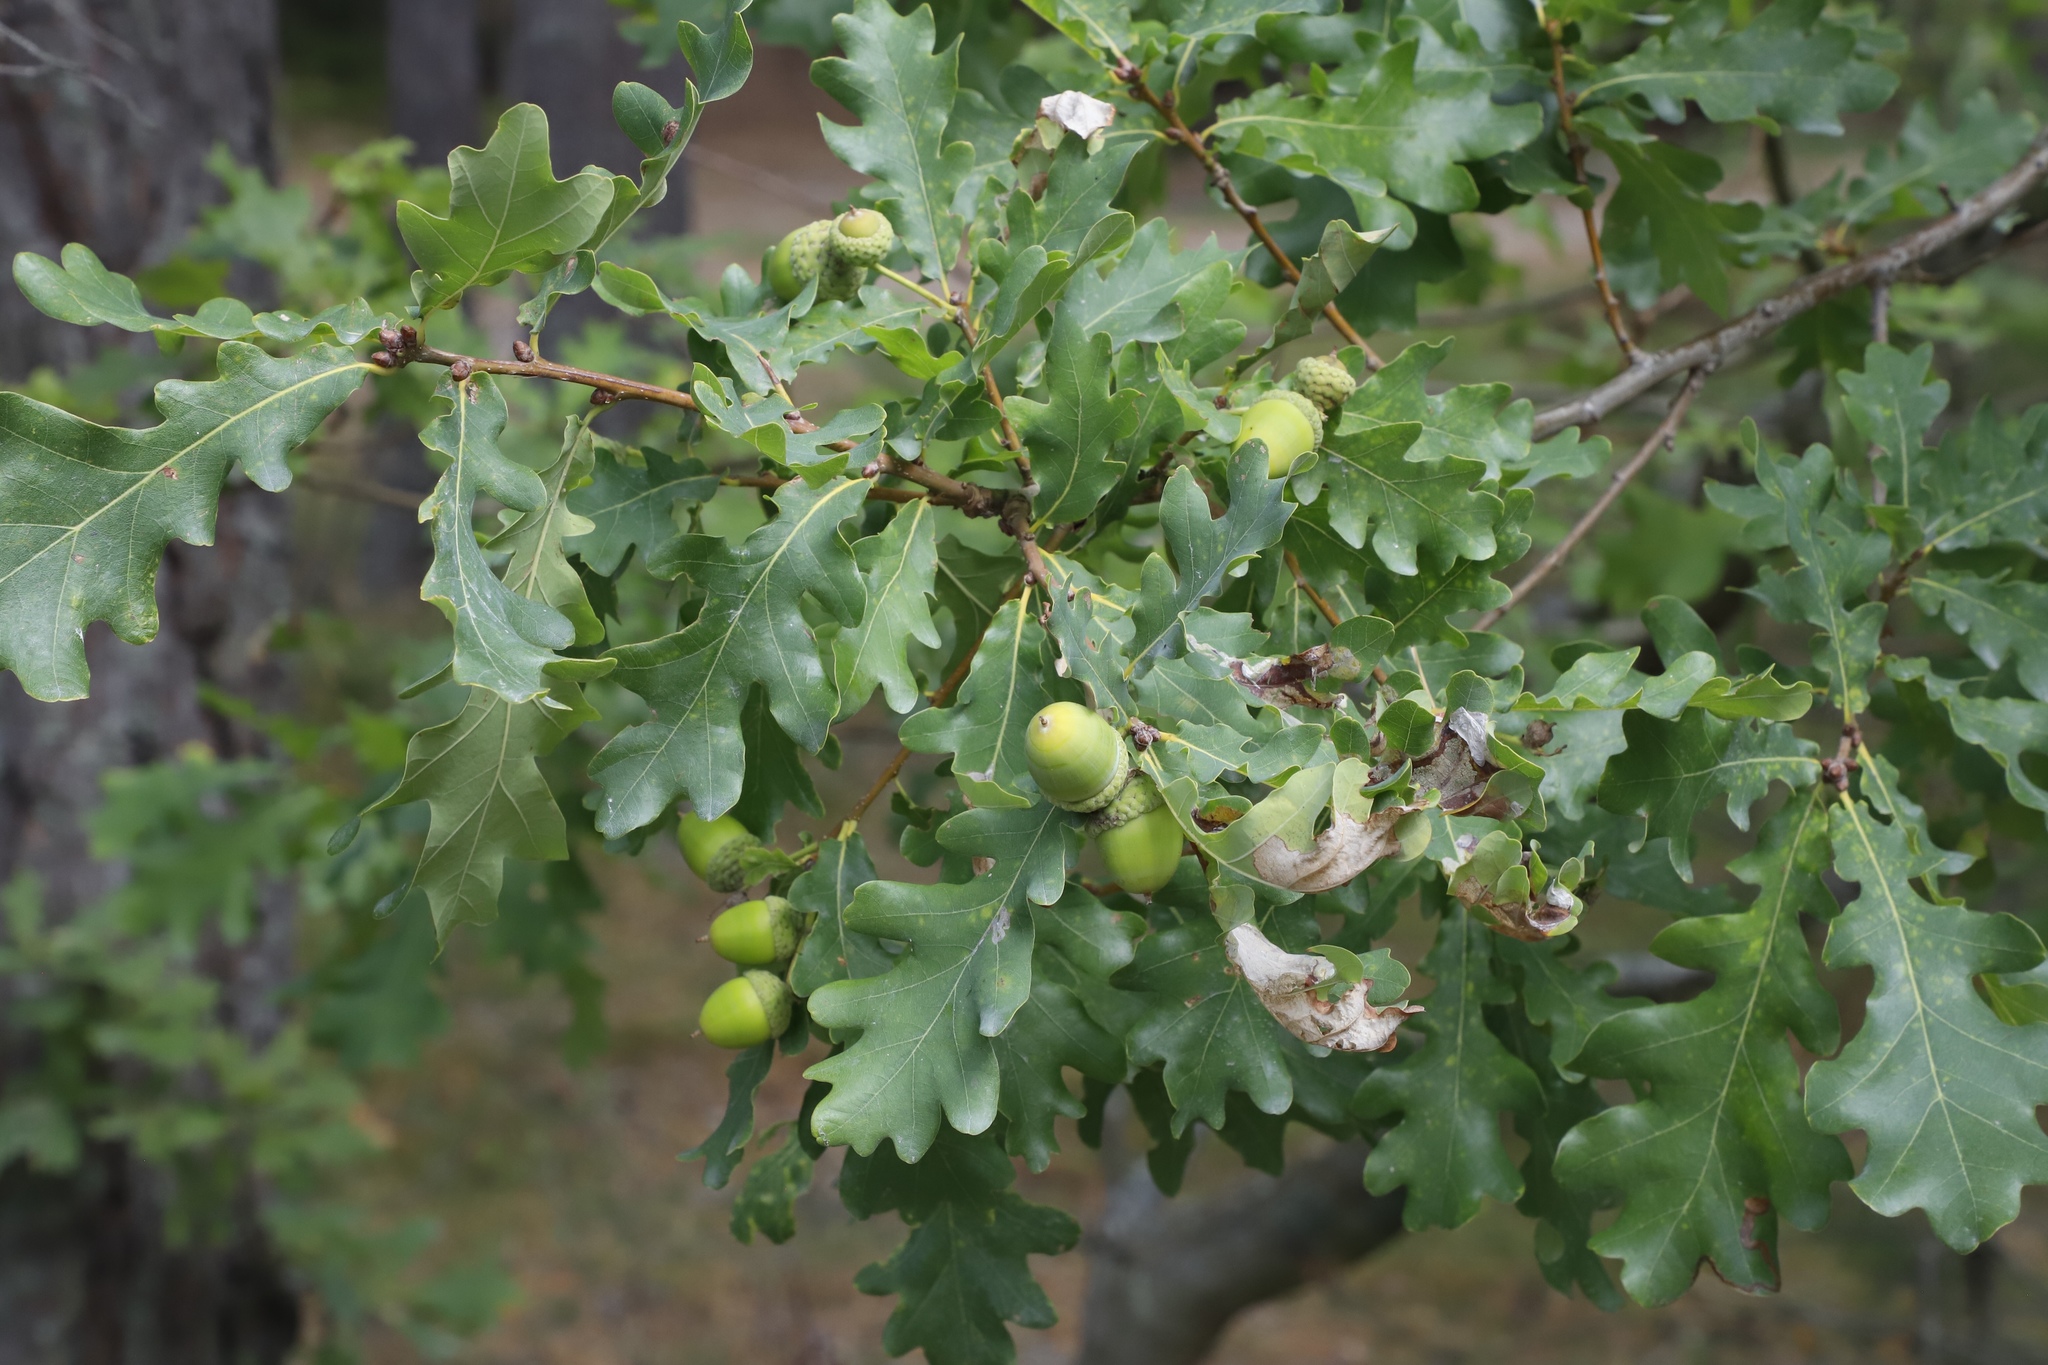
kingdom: Plantae
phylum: Tracheophyta
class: Magnoliopsida
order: Fagales
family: Fagaceae
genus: Quercus
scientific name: Quercus robur
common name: Pedunculate oak
